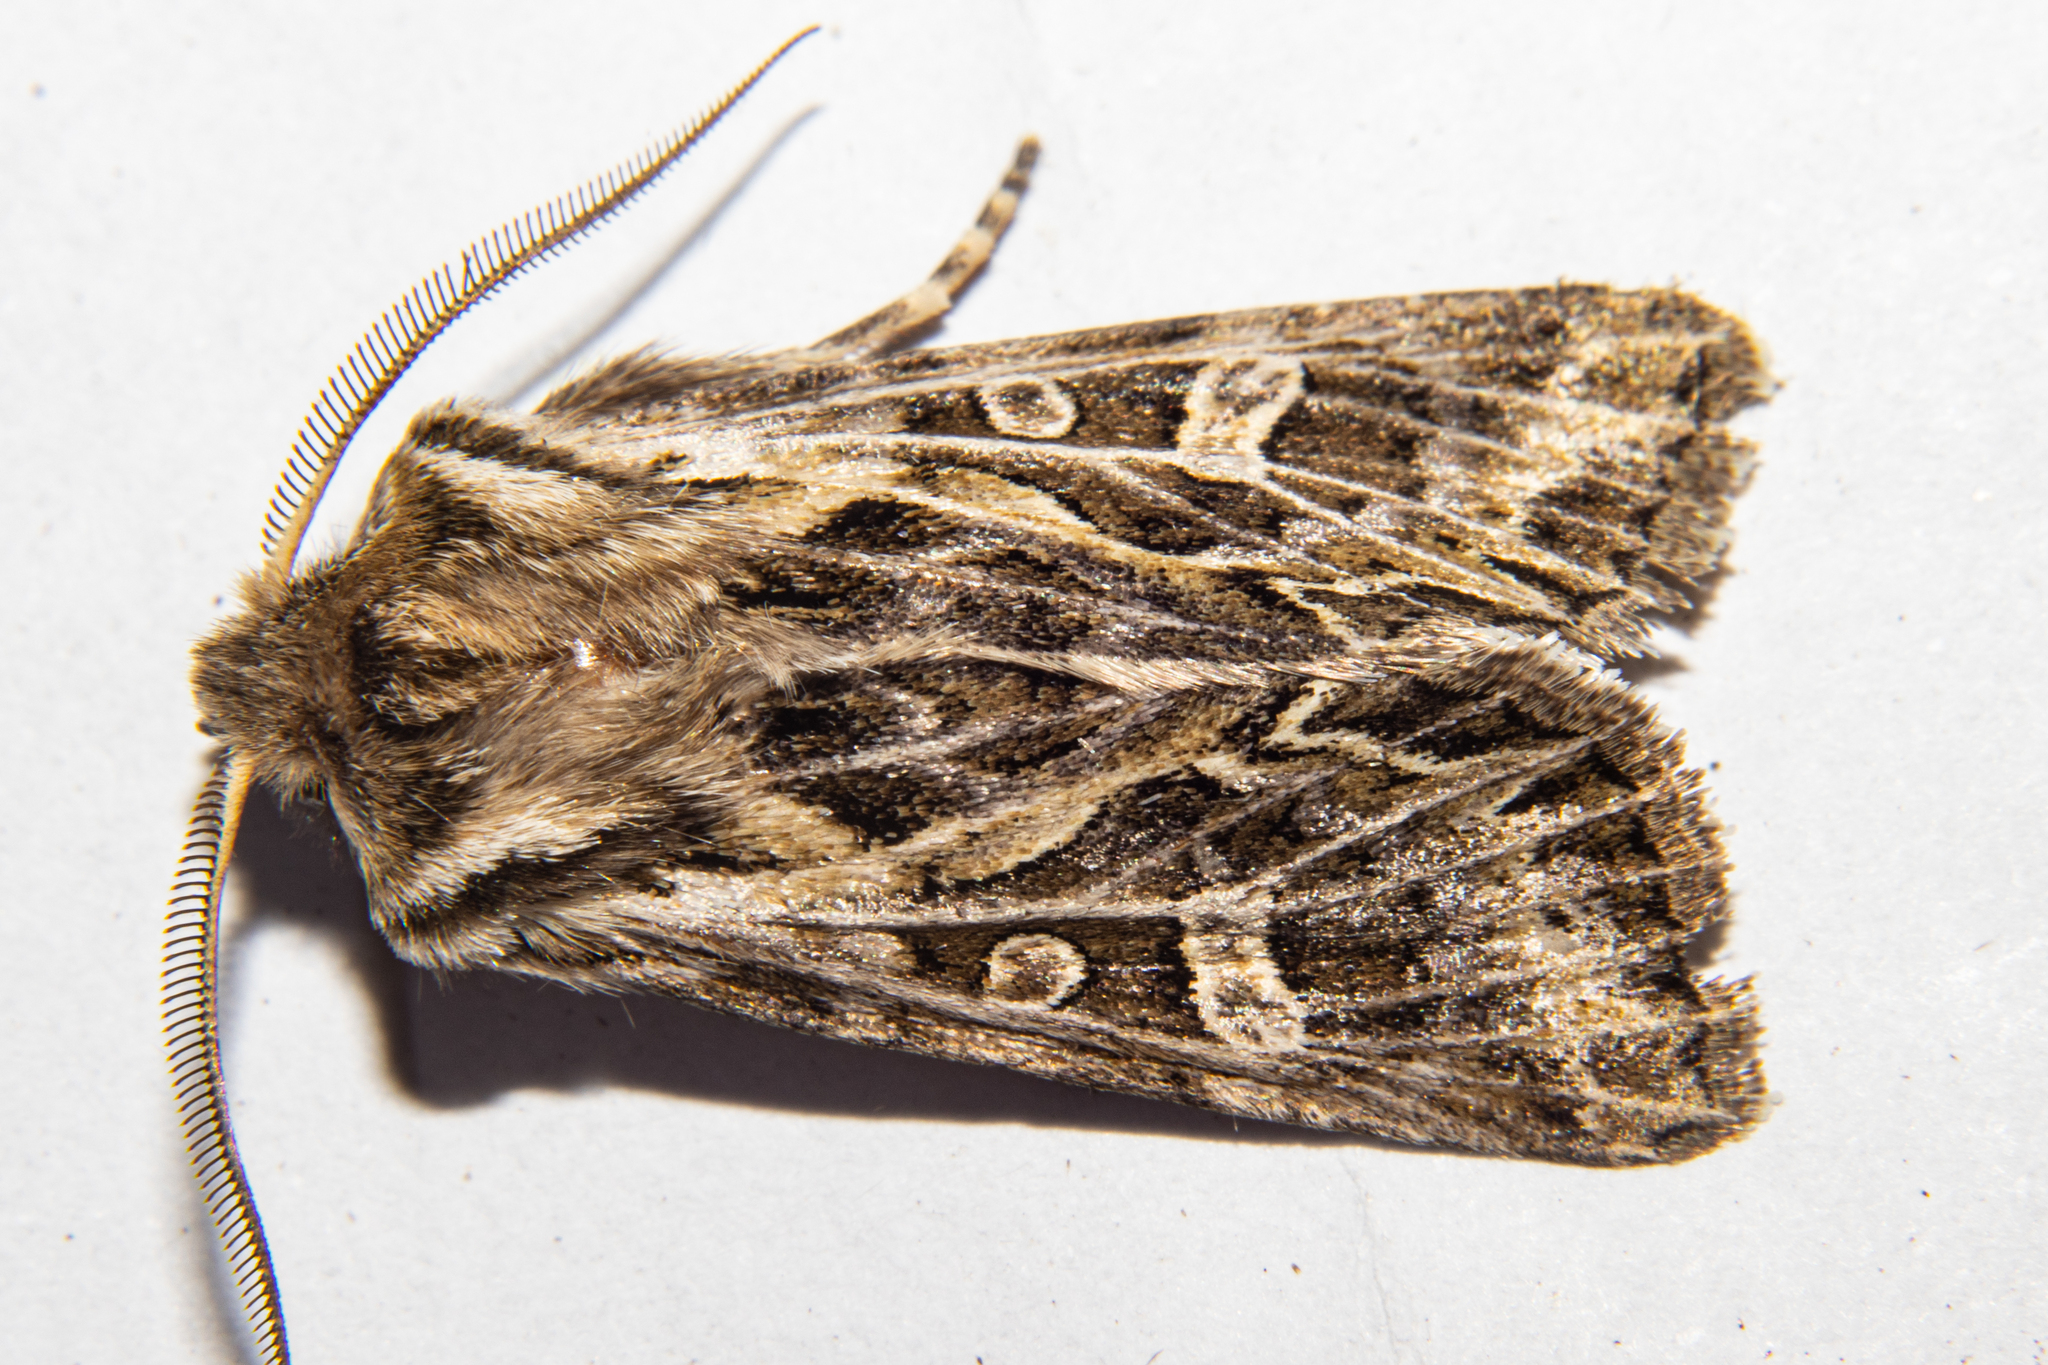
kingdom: Animalia
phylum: Arthropoda
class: Insecta
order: Lepidoptera
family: Noctuidae
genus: Ichneutica
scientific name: Ichneutica
